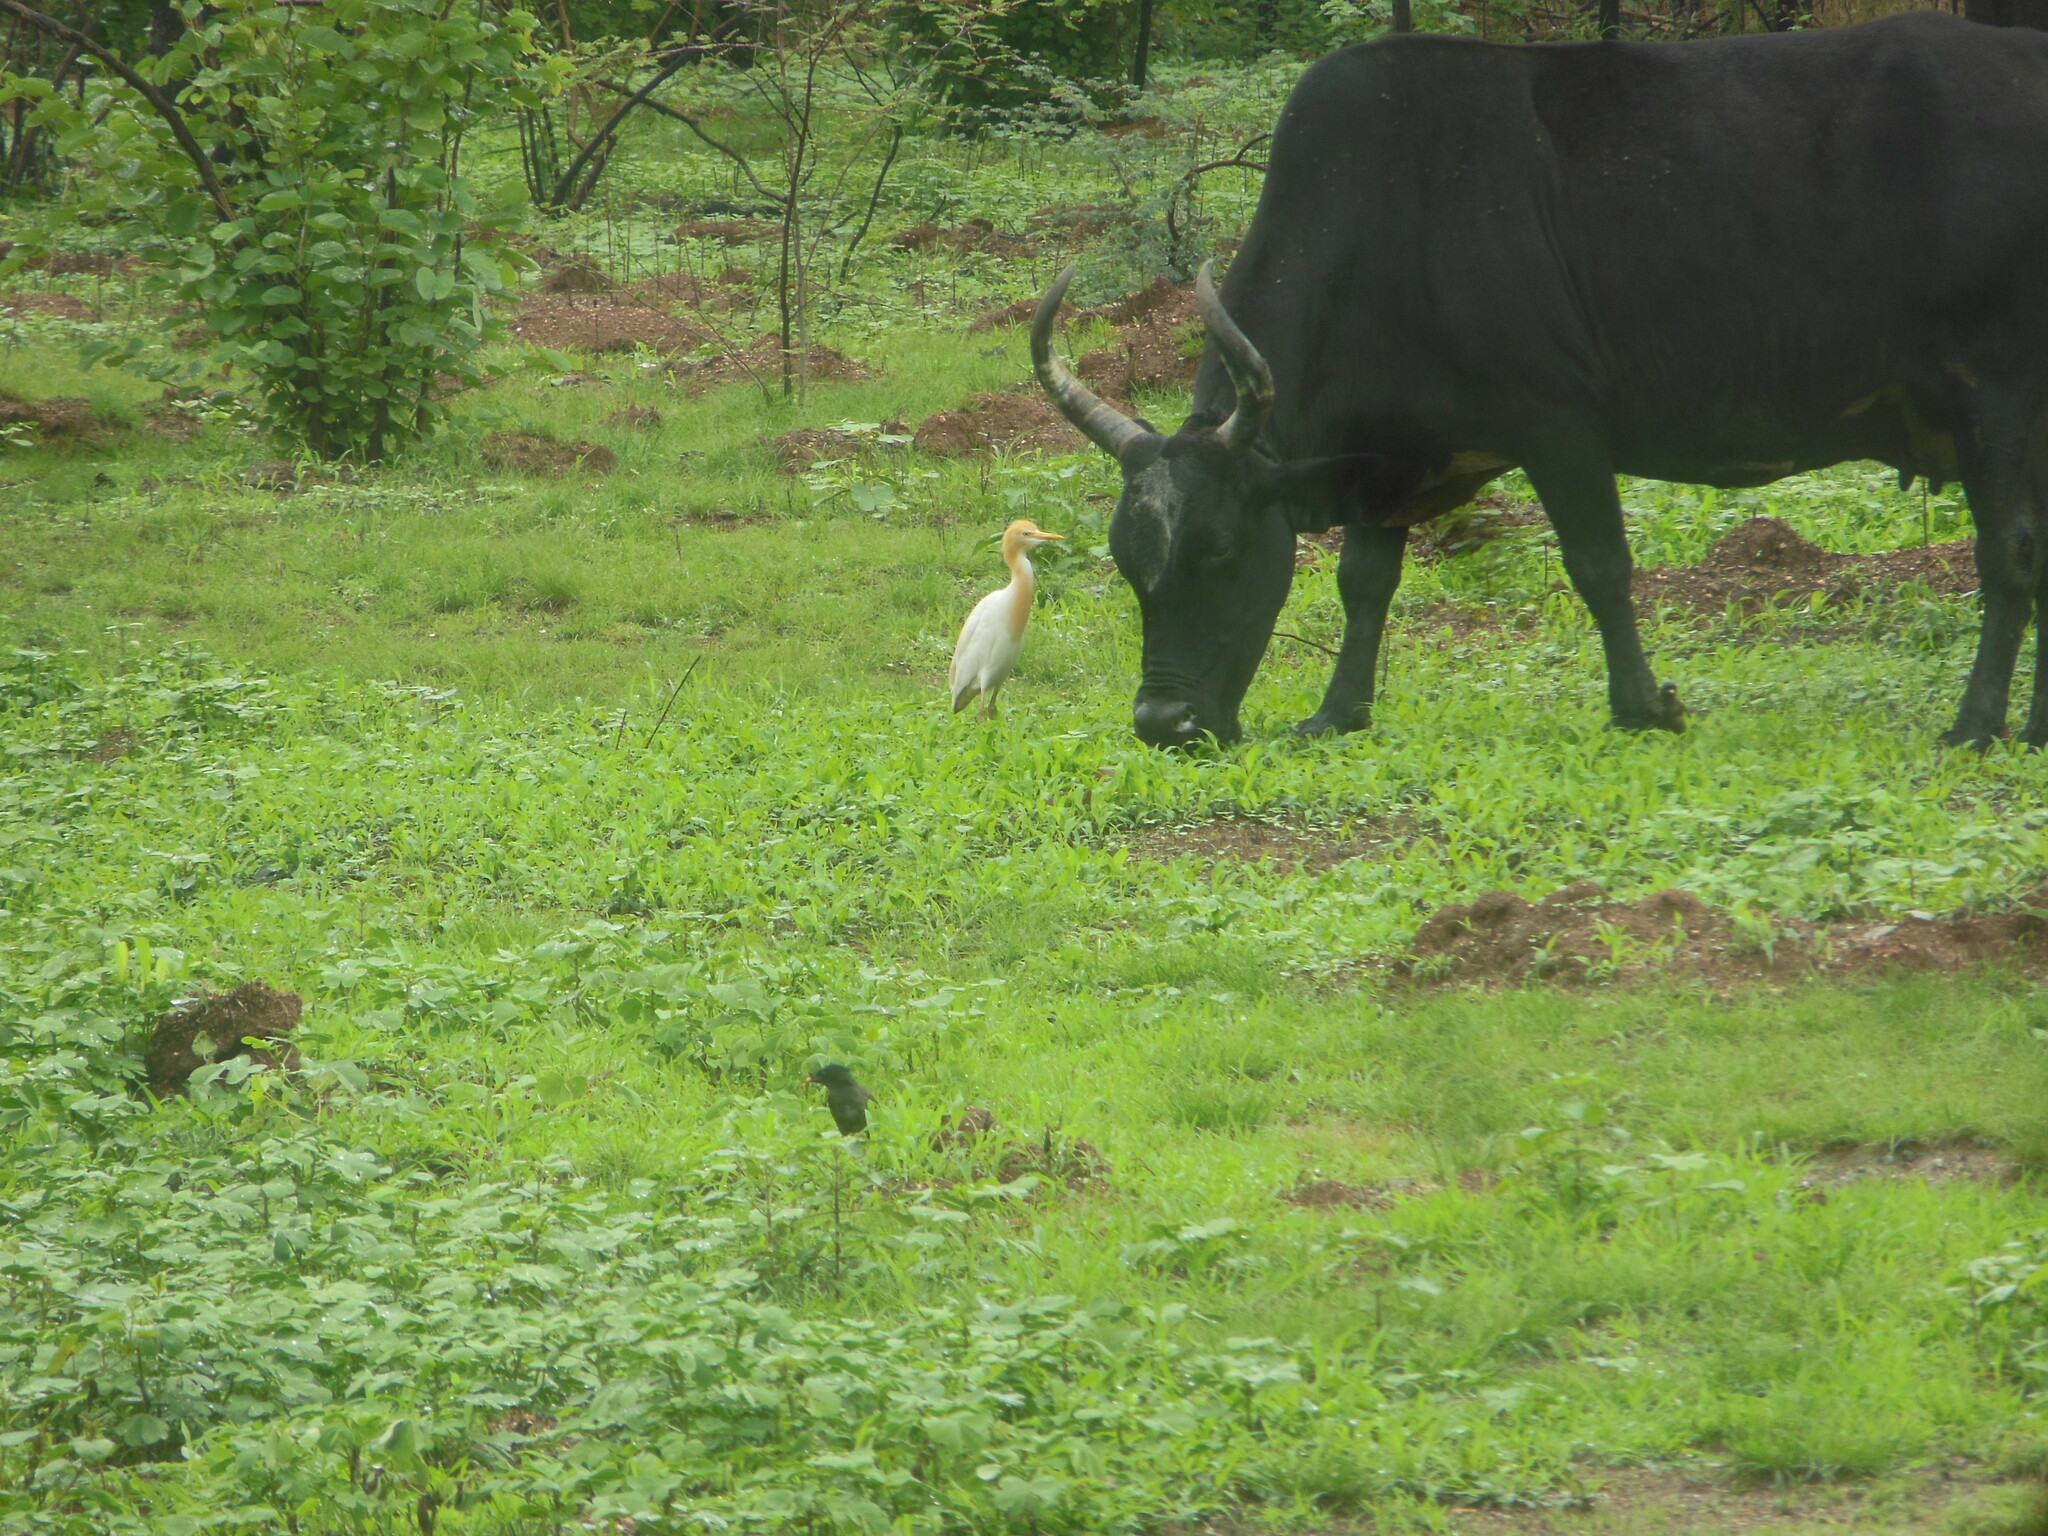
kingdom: Animalia
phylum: Chordata
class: Aves
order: Pelecaniformes
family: Ardeidae
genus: Bubulcus
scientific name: Bubulcus coromandus
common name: Eastern cattle egret
